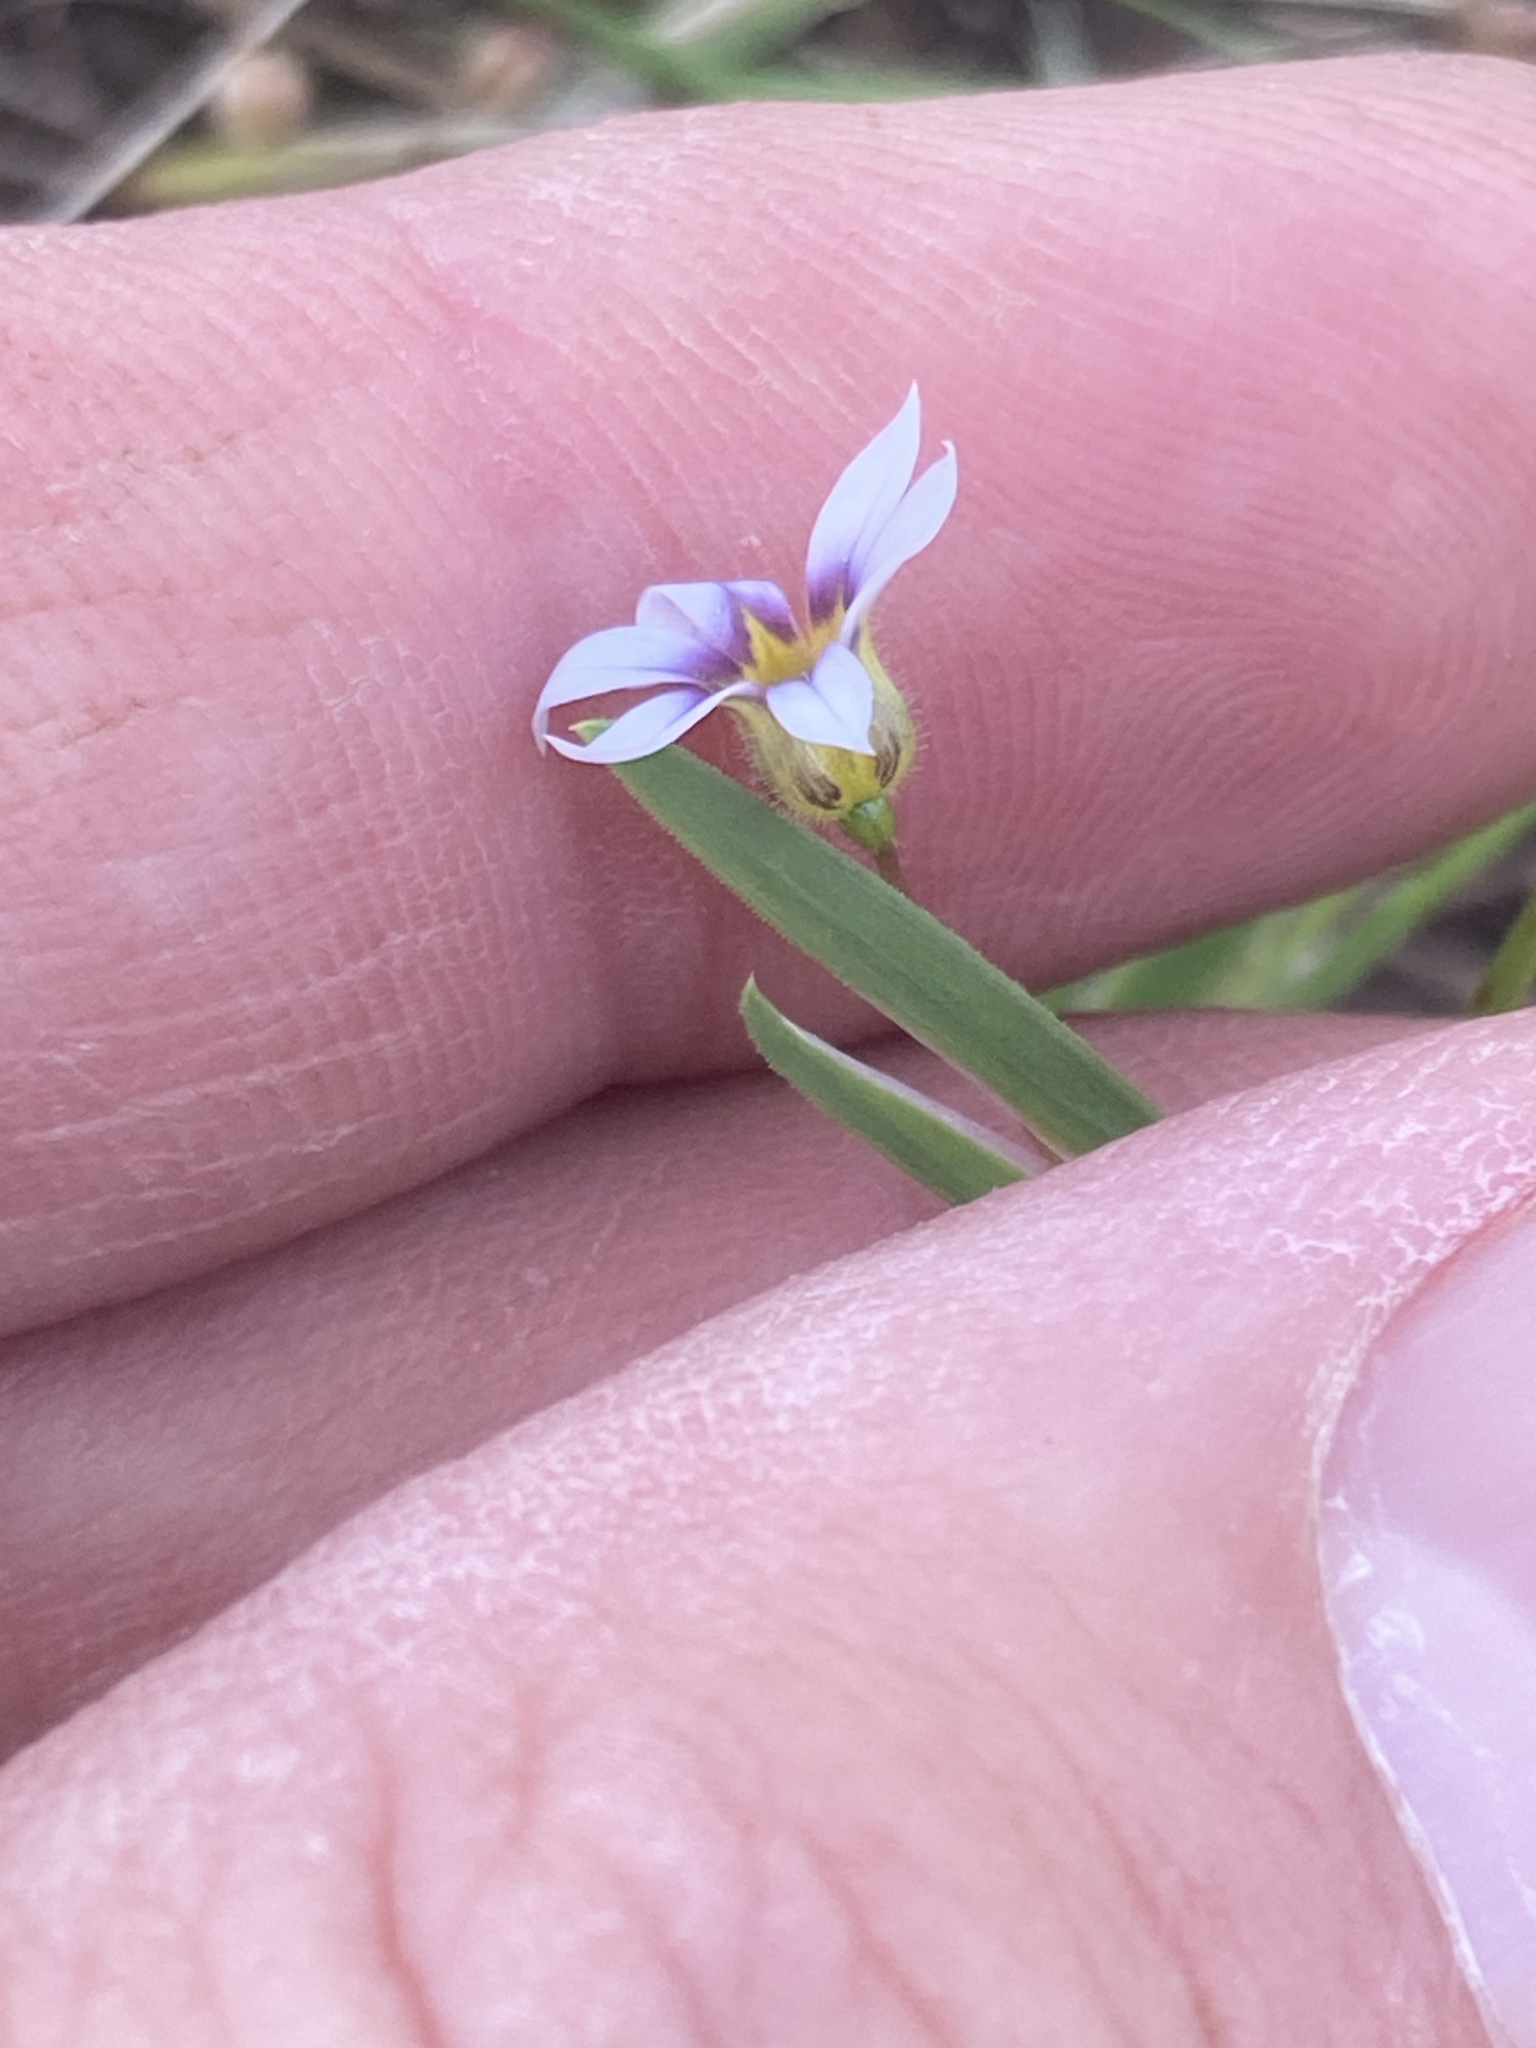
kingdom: Plantae
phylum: Tracheophyta
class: Liliopsida
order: Asparagales
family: Iridaceae
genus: Sisyrinchium
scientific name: Sisyrinchium micranthum
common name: Bermuda pigroot
